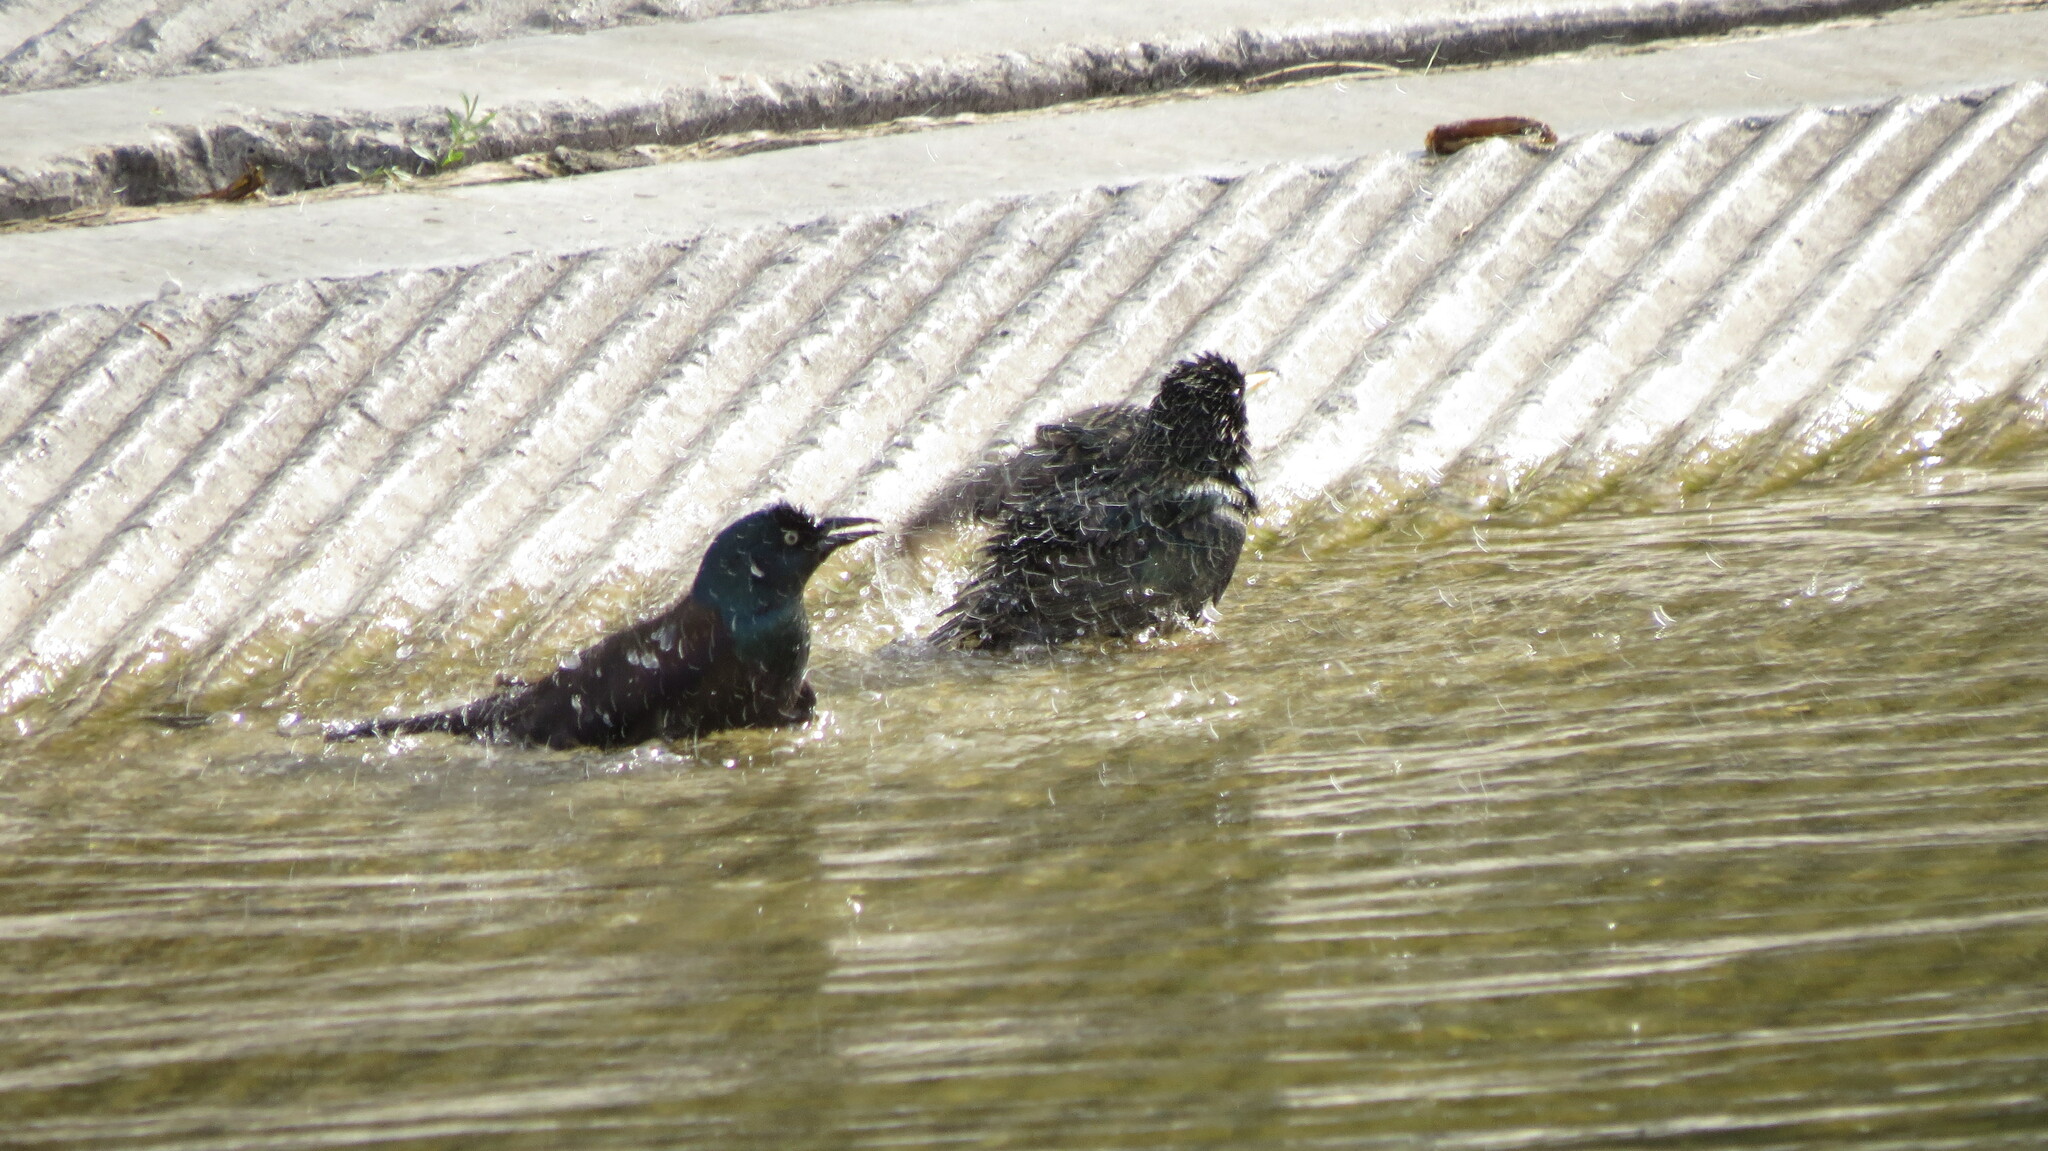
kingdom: Animalia
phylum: Chordata
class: Aves
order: Passeriformes
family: Sturnidae
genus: Sturnus
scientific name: Sturnus vulgaris
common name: Common starling
